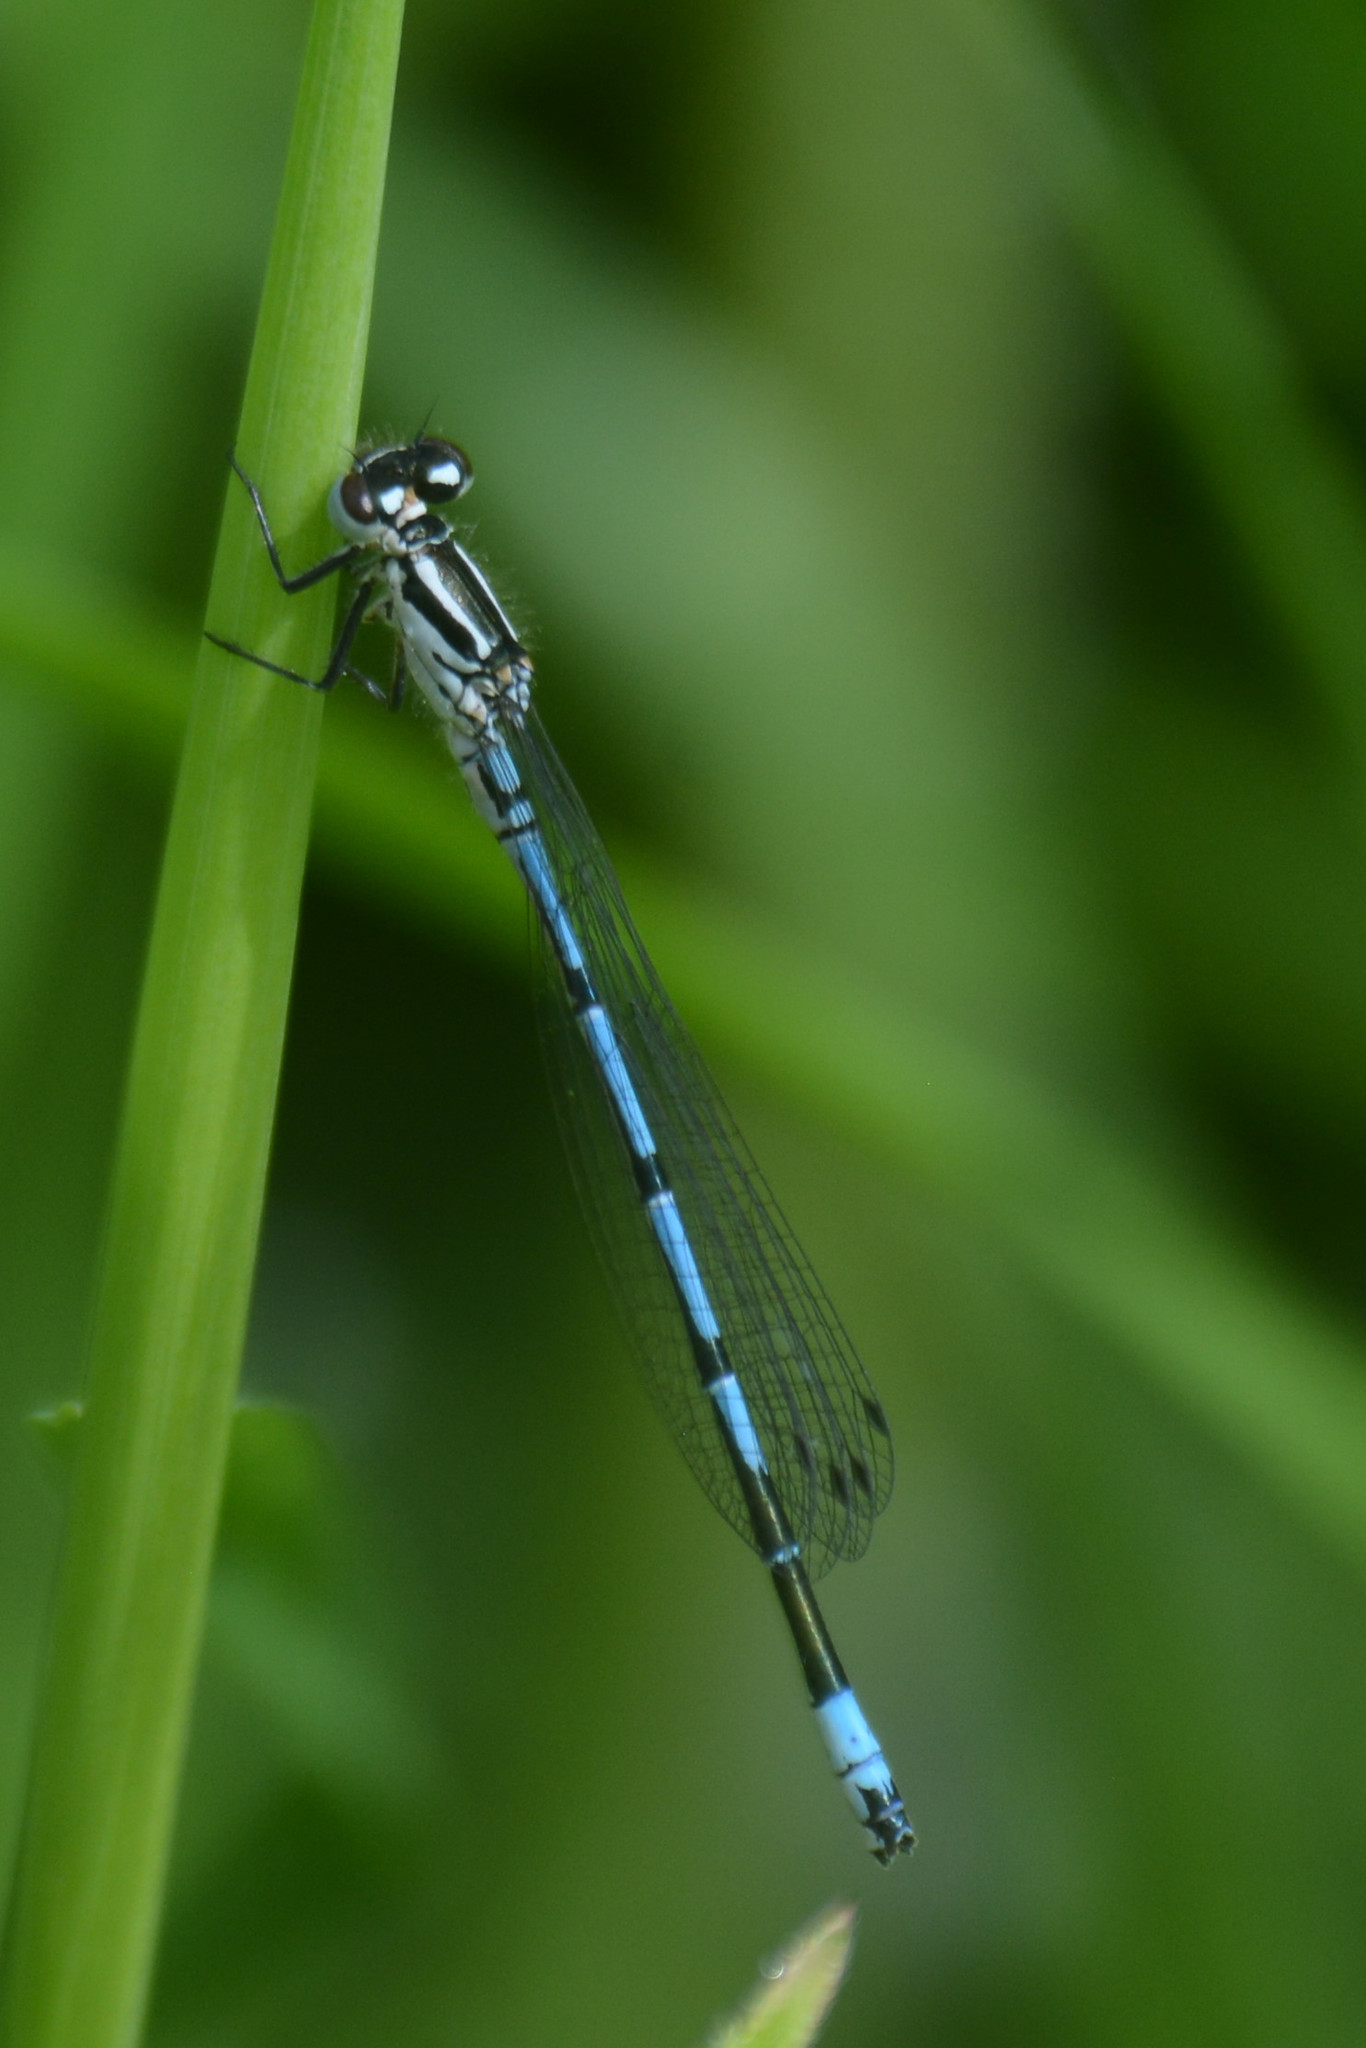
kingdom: Animalia
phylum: Arthropoda
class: Insecta
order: Odonata
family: Coenagrionidae
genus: Coenagrion
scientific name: Coenagrion puella
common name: Azure damselfly
